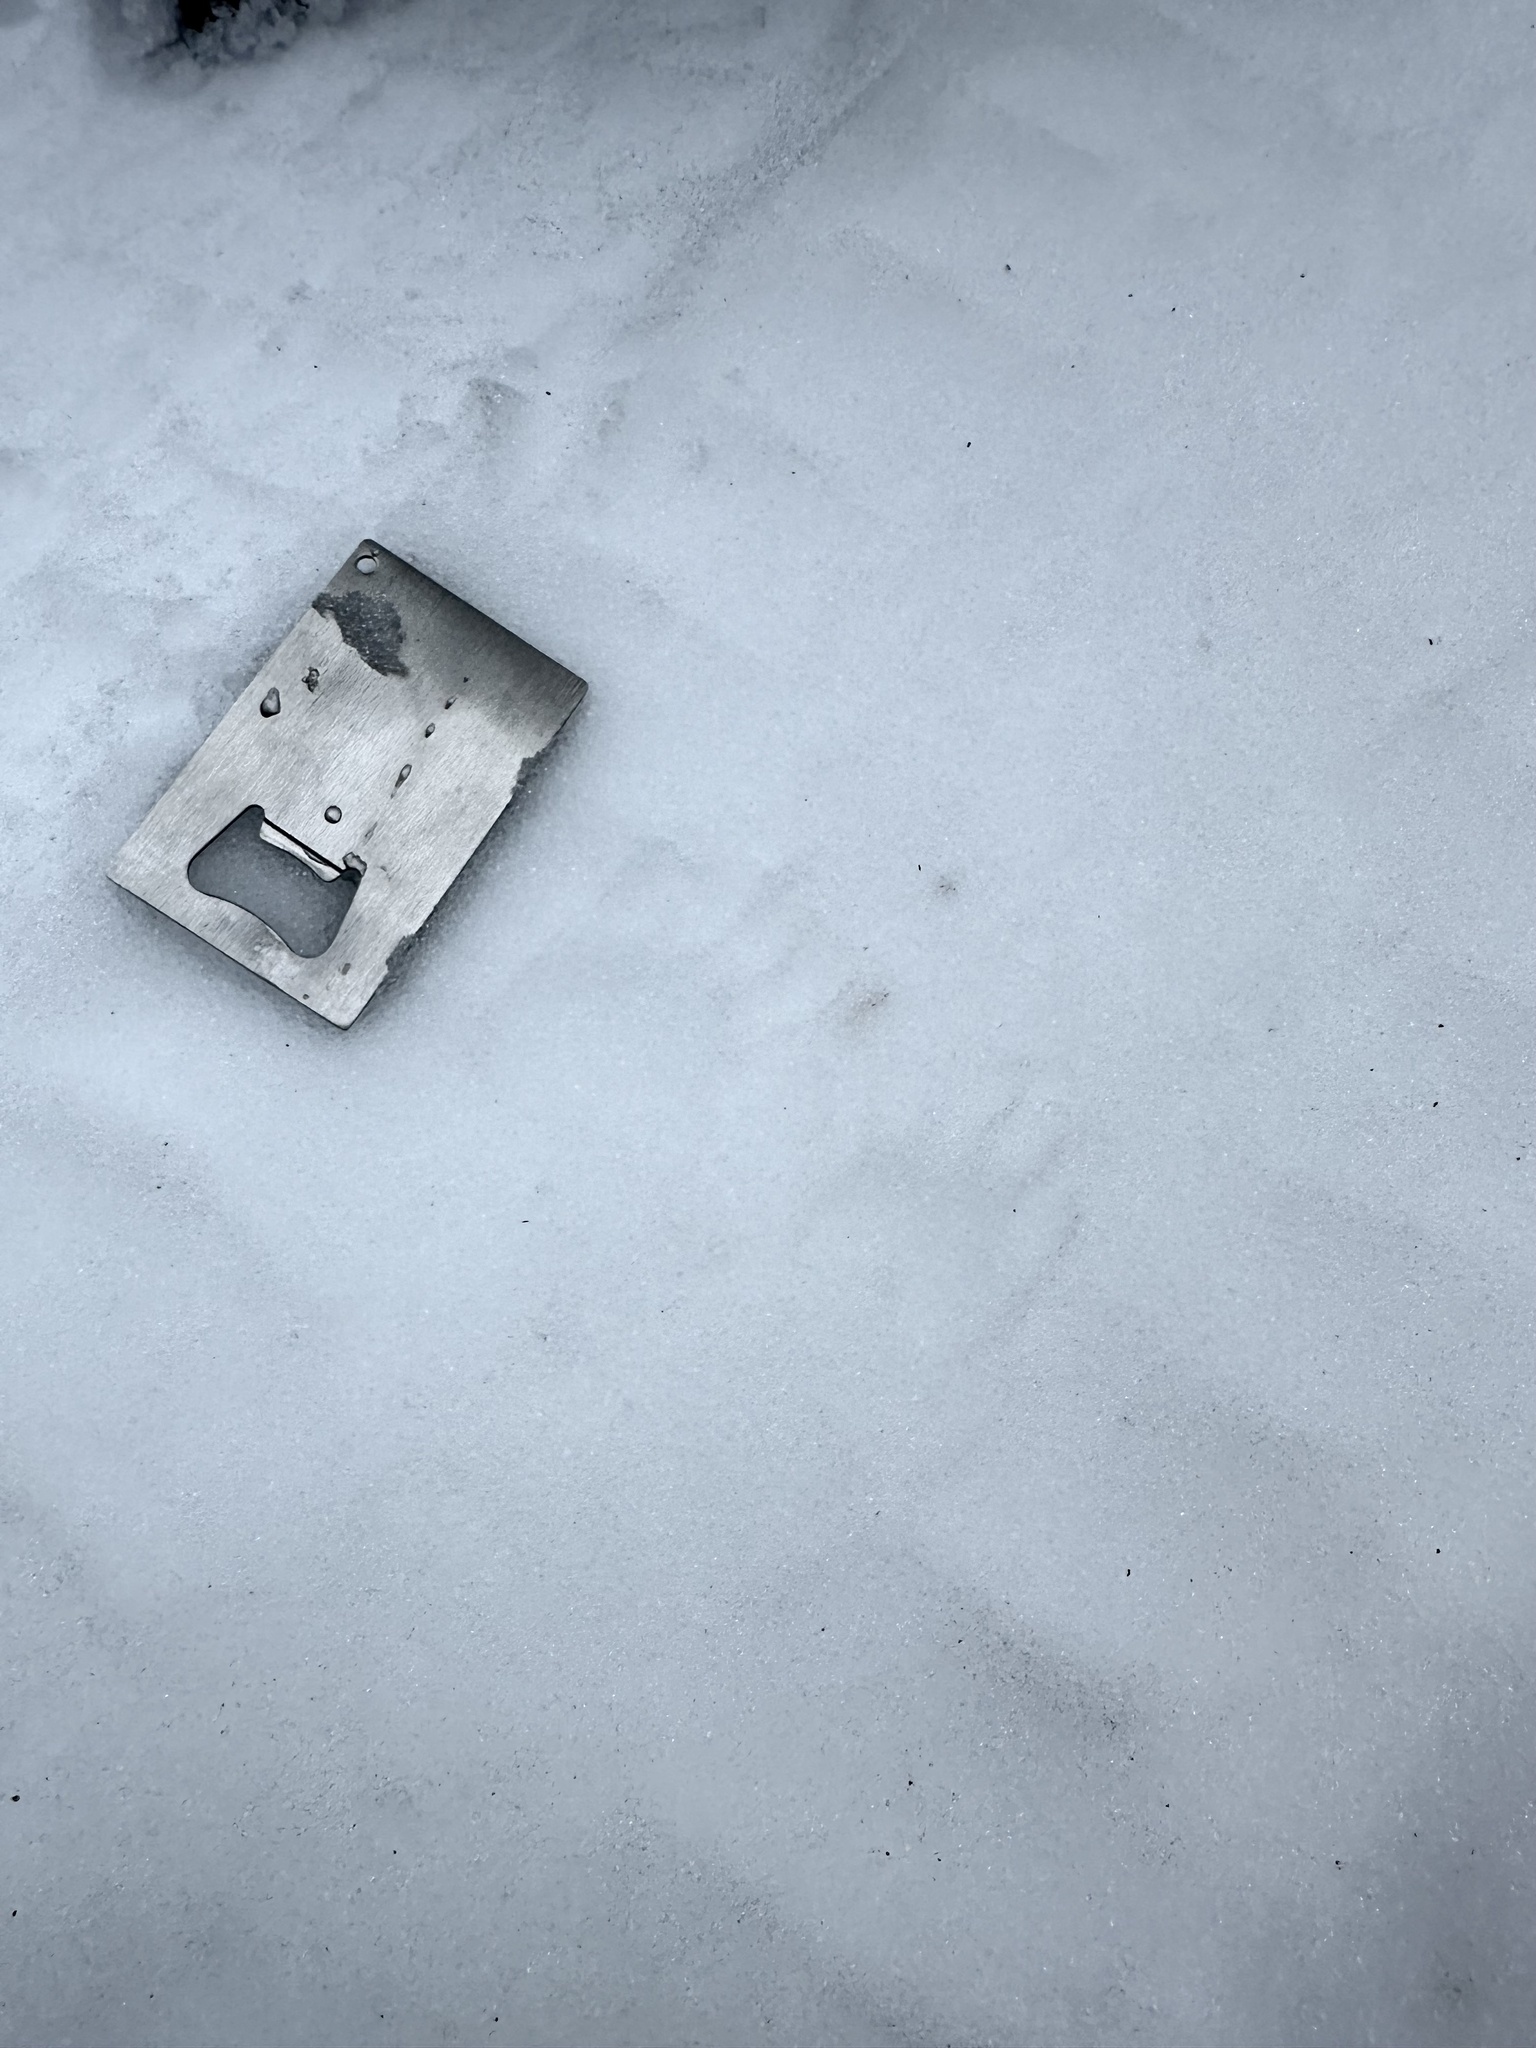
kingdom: Animalia
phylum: Chordata
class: Mammalia
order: Carnivora
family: Procyonidae
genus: Procyon
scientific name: Procyon lotor
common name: Raccoon
